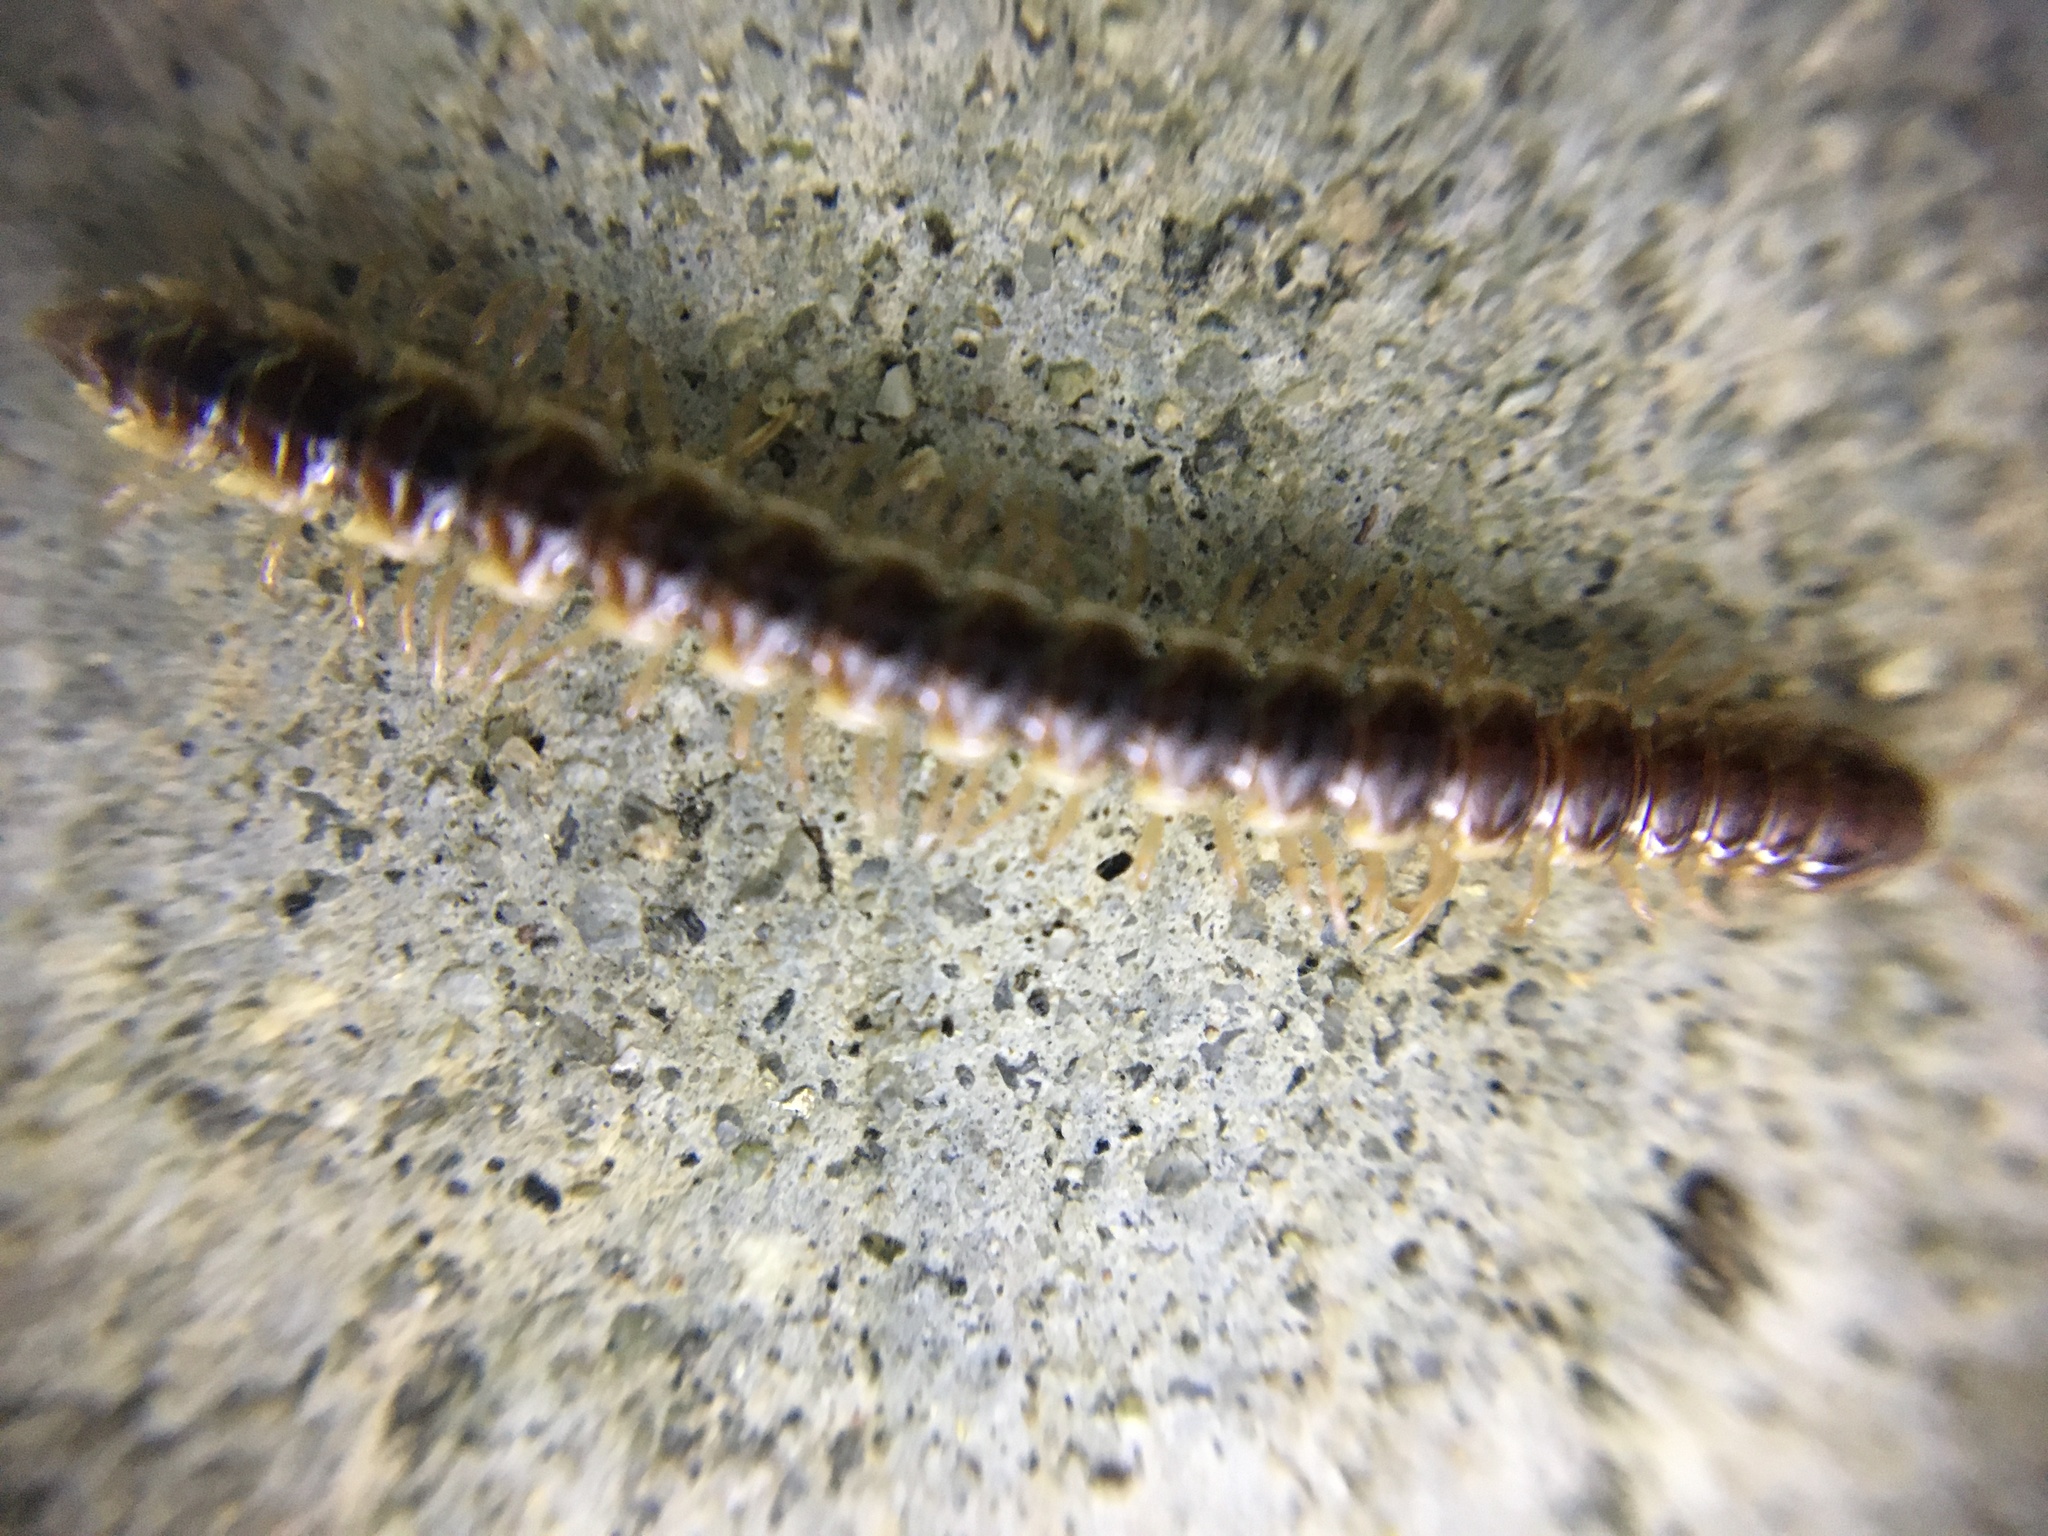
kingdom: Animalia
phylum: Arthropoda
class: Diplopoda
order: Polydesmida
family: Paradoxosomatidae
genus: Oxidus
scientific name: Oxidus gracilis
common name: Greenhouse millipede
